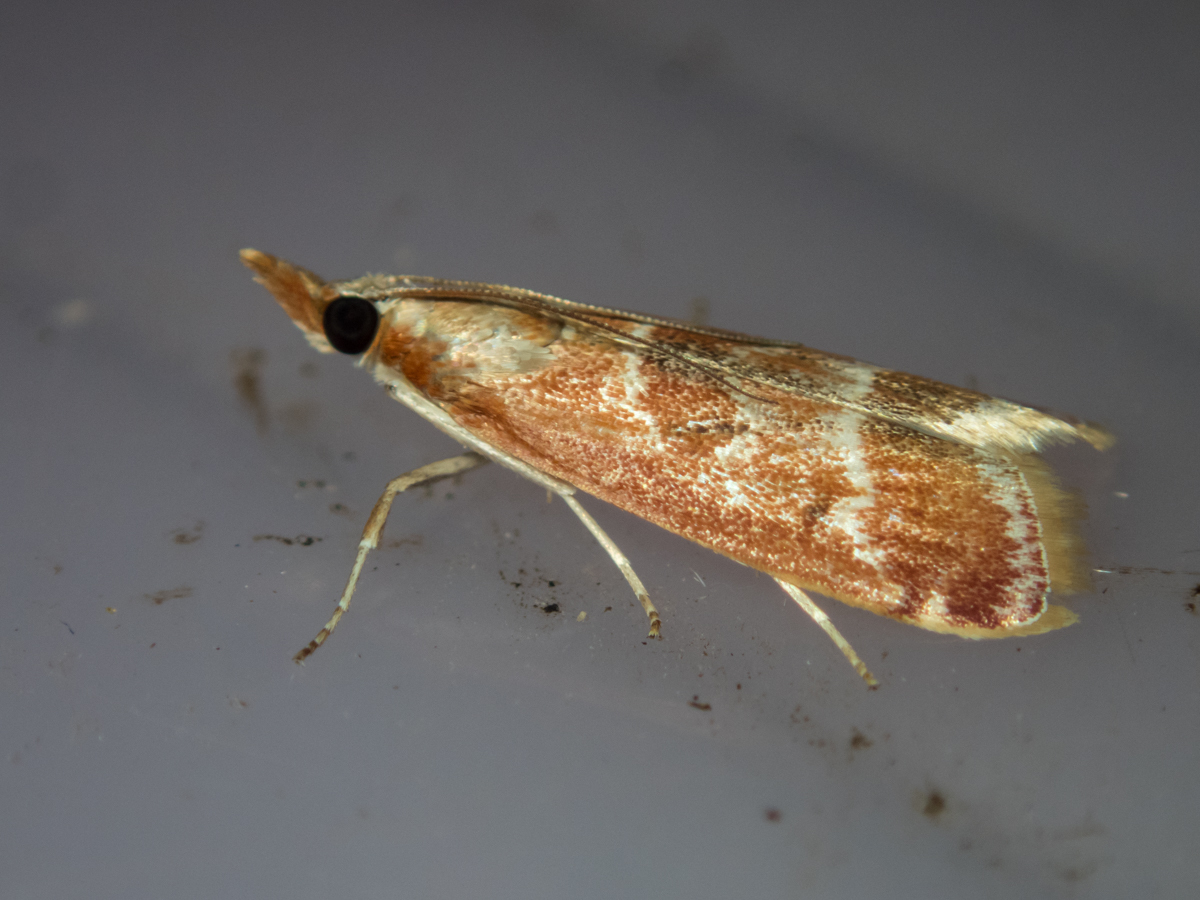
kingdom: Animalia
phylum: Arthropoda
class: Insecta
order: Lepidoptera
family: Crambidae
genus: Syntonarcha
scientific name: Syntonarcha iriastis
